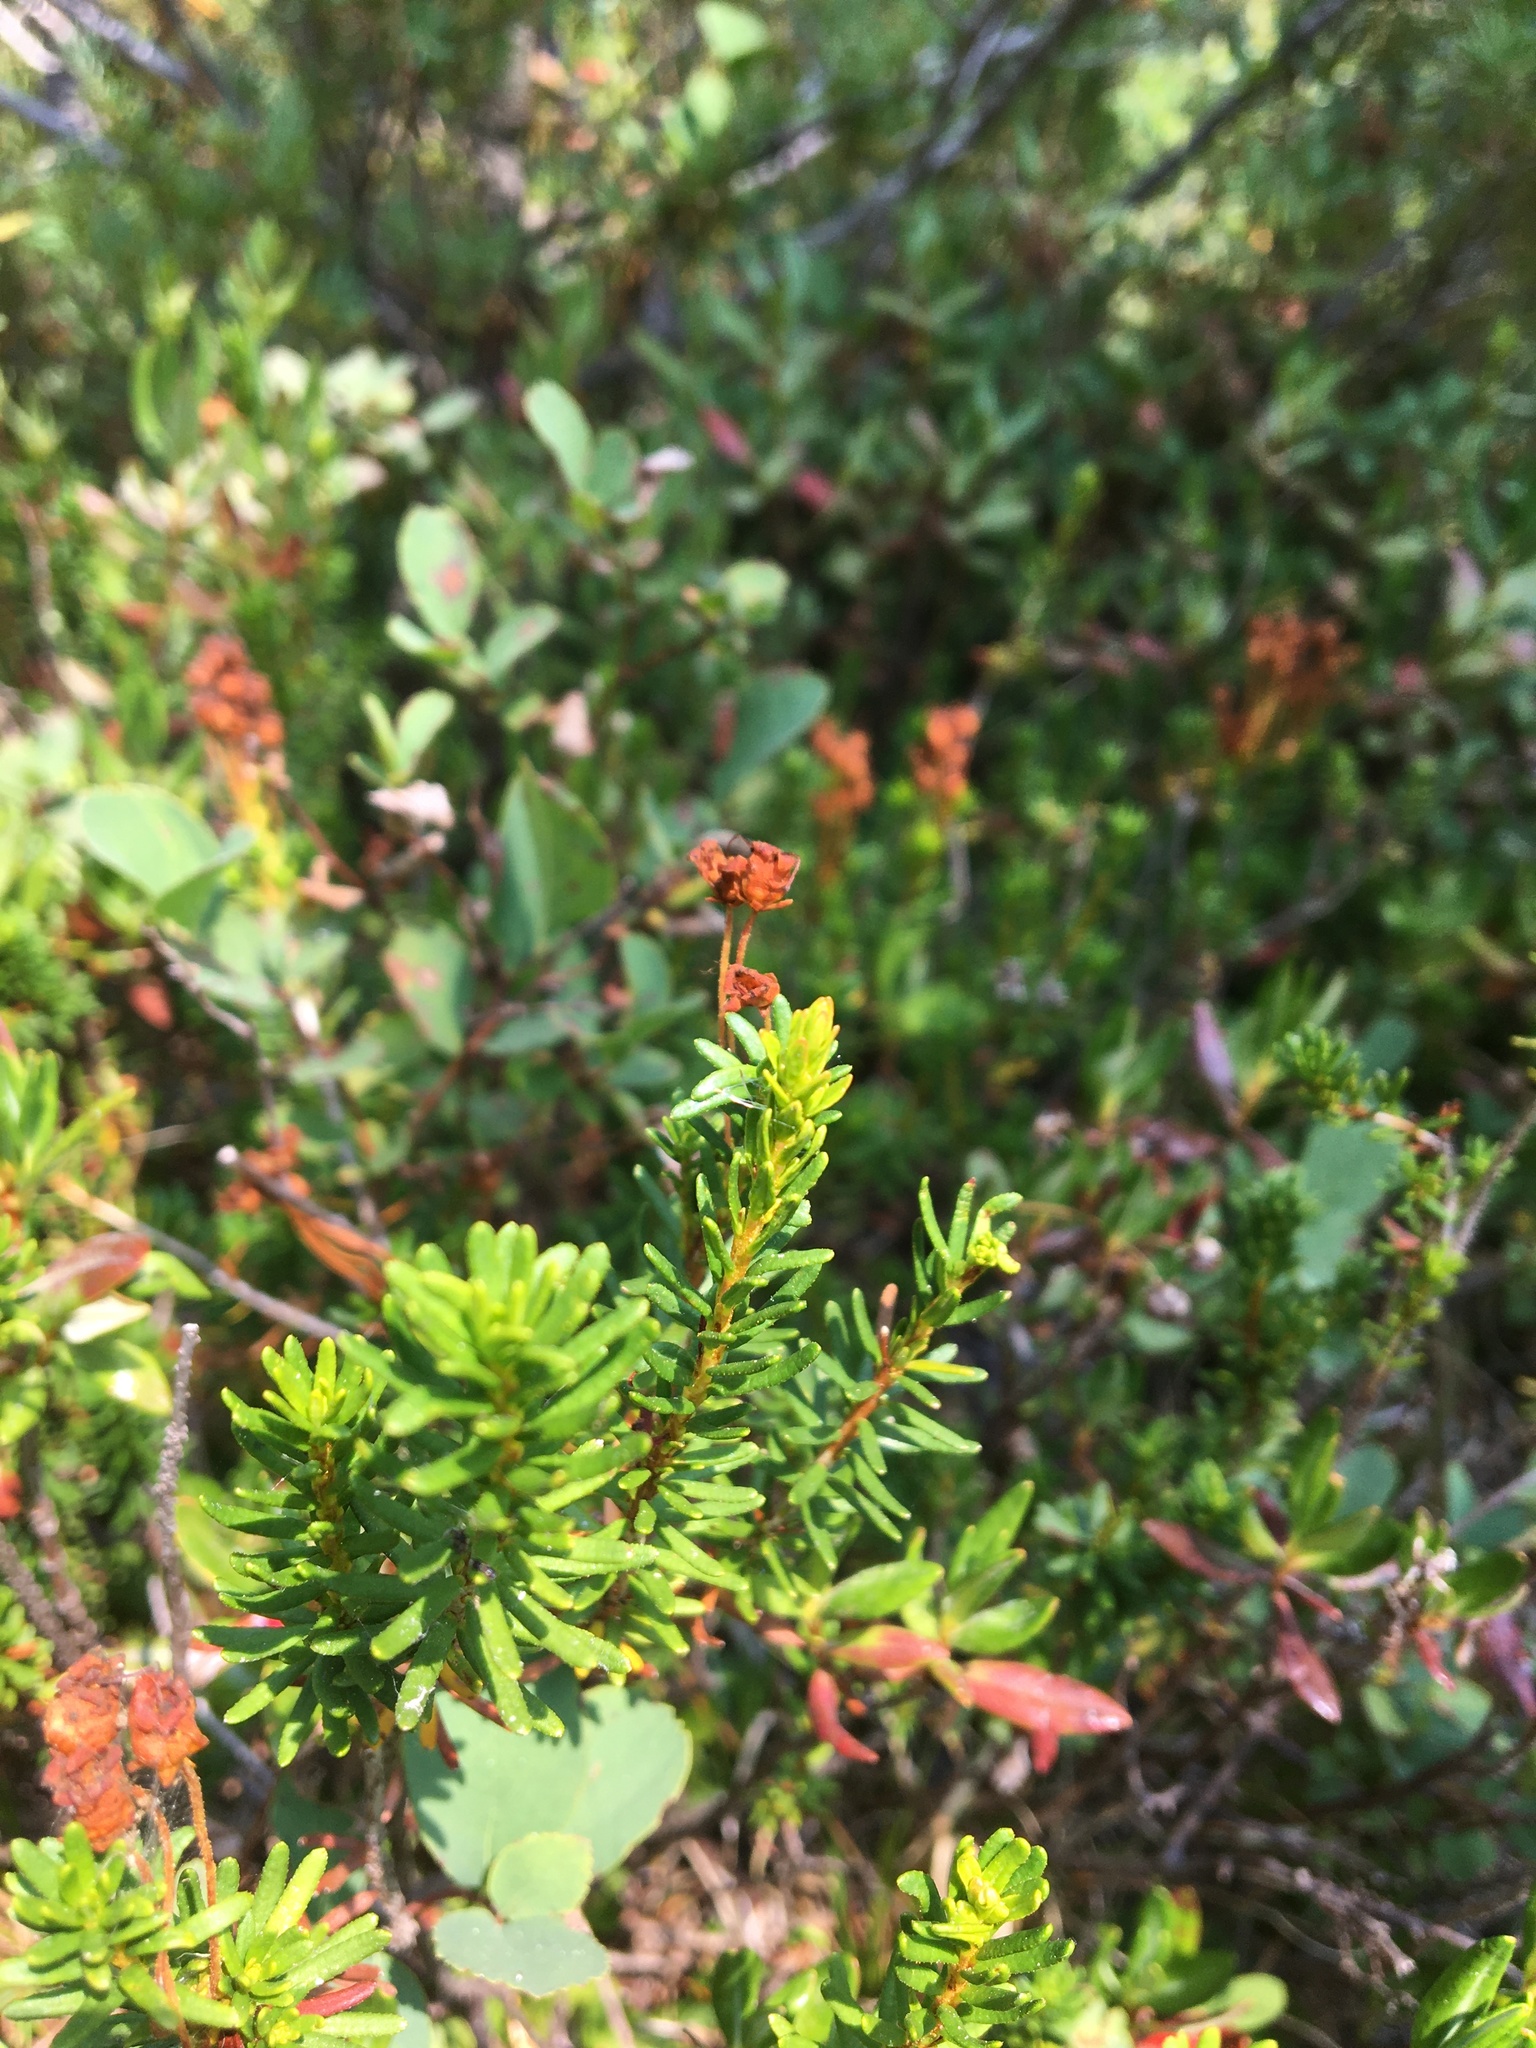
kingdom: Plantae
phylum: Tracheophyta
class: Magnoliopsida
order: Ericales
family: Ericaceae
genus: Phyllodoce
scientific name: Phyllodoce empetriformis
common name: Pink mountain heather
